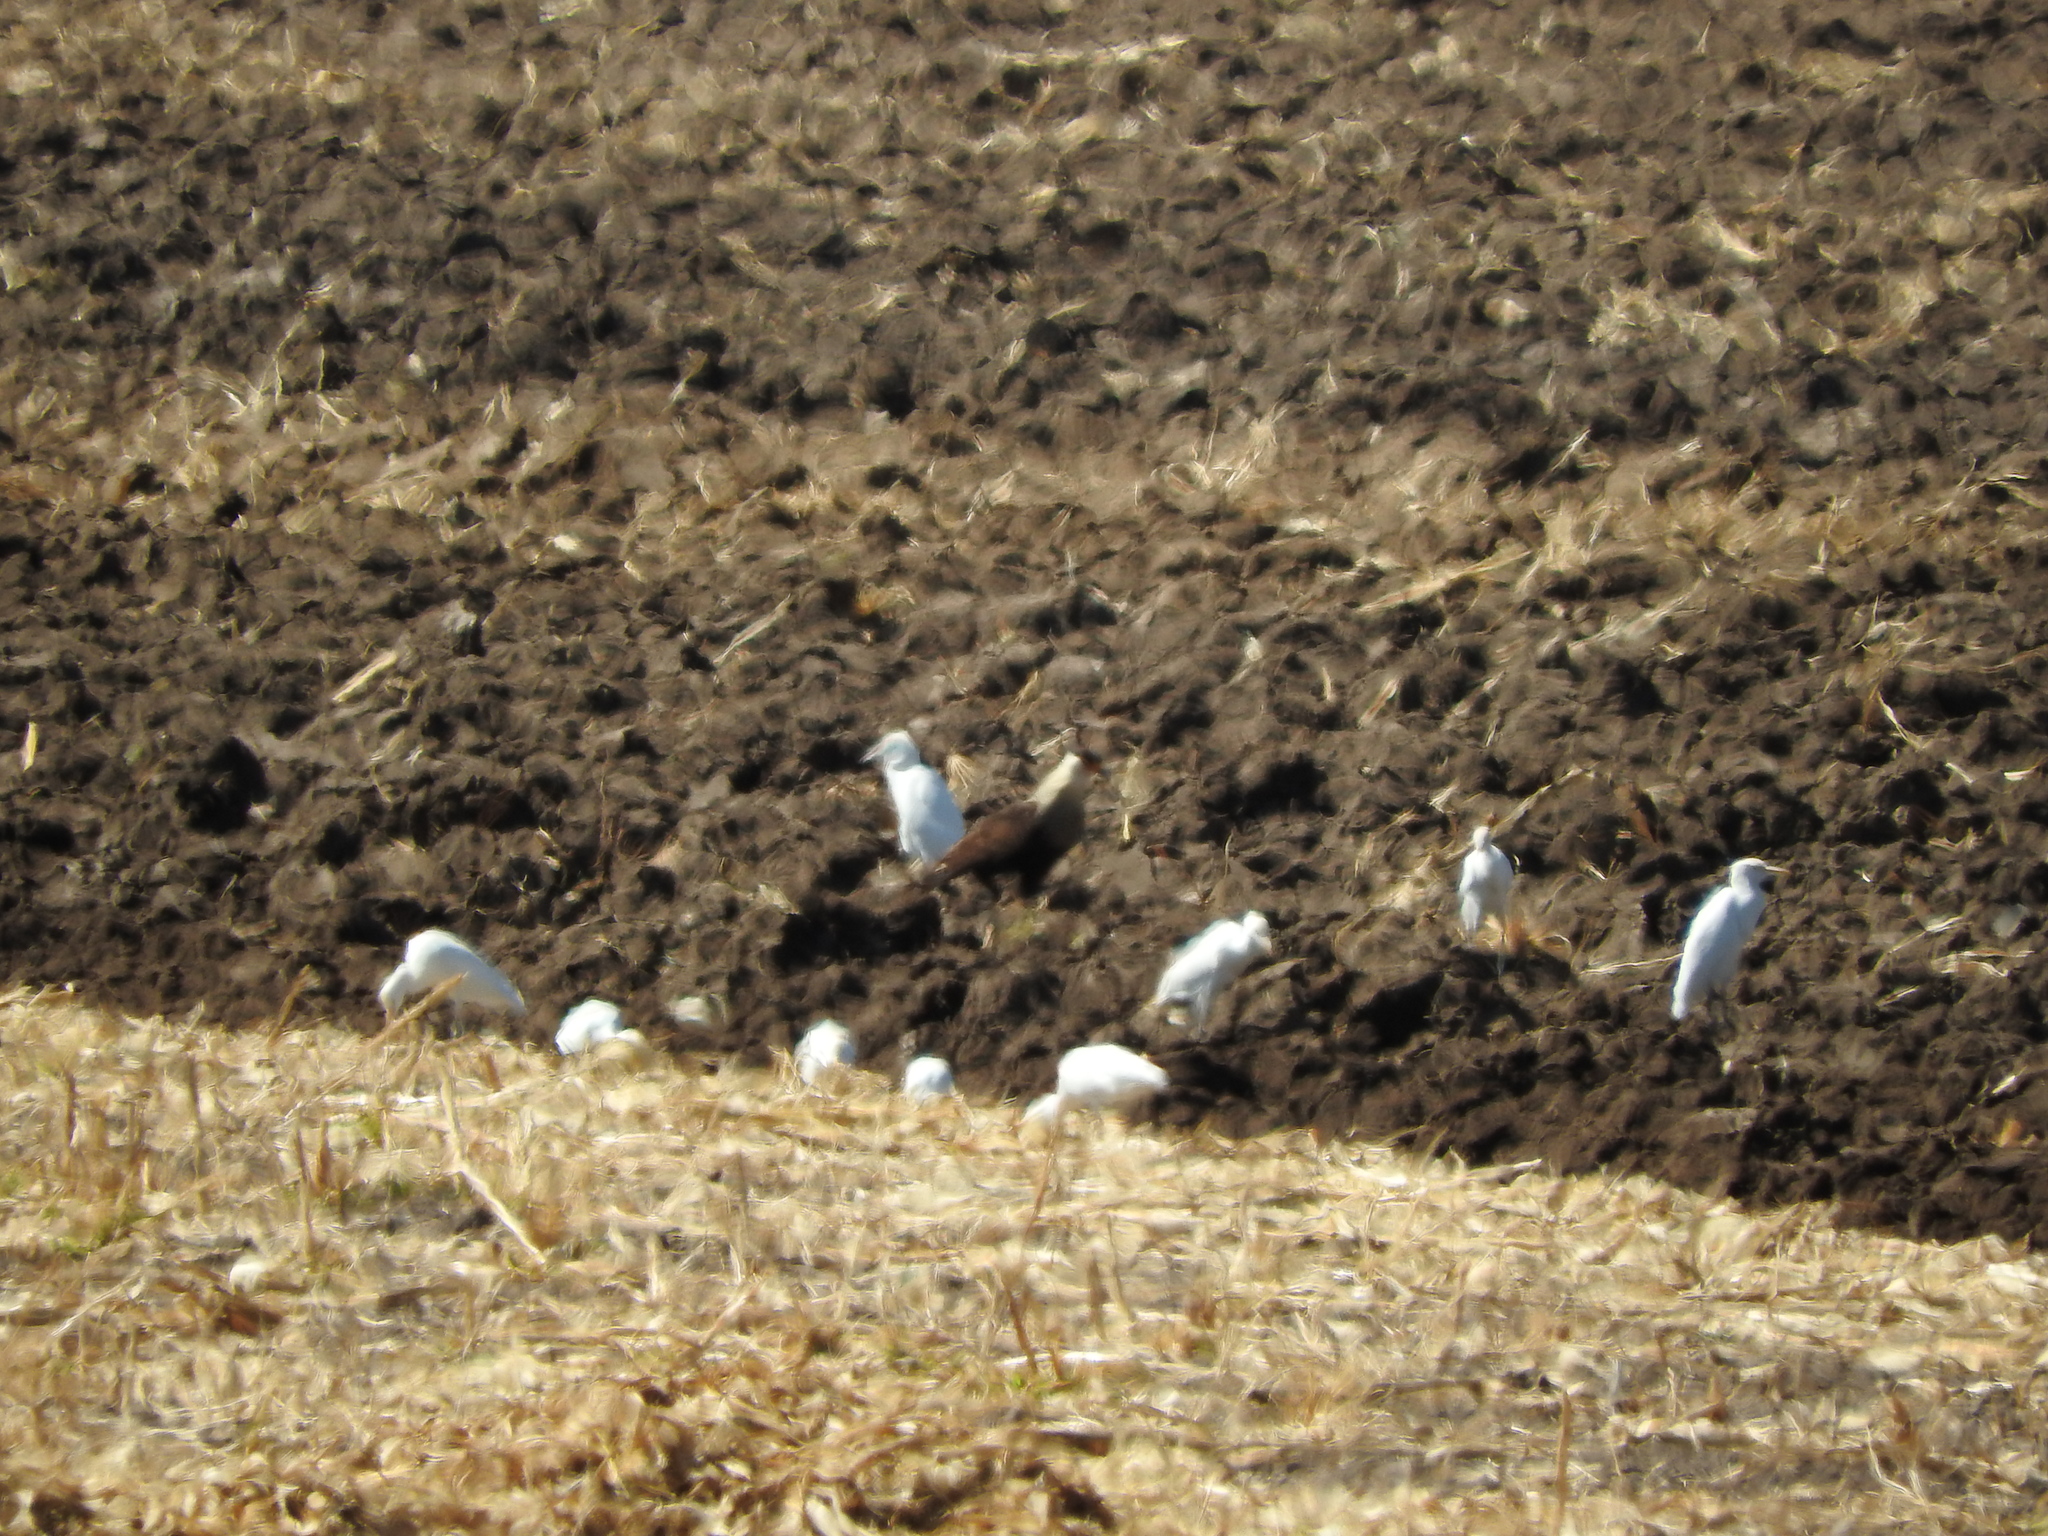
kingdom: Animalia
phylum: Chordata
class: Aves
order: Falconiformes
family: Falconidae
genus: Caracara
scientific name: Caracara plancus
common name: Southern caracara
